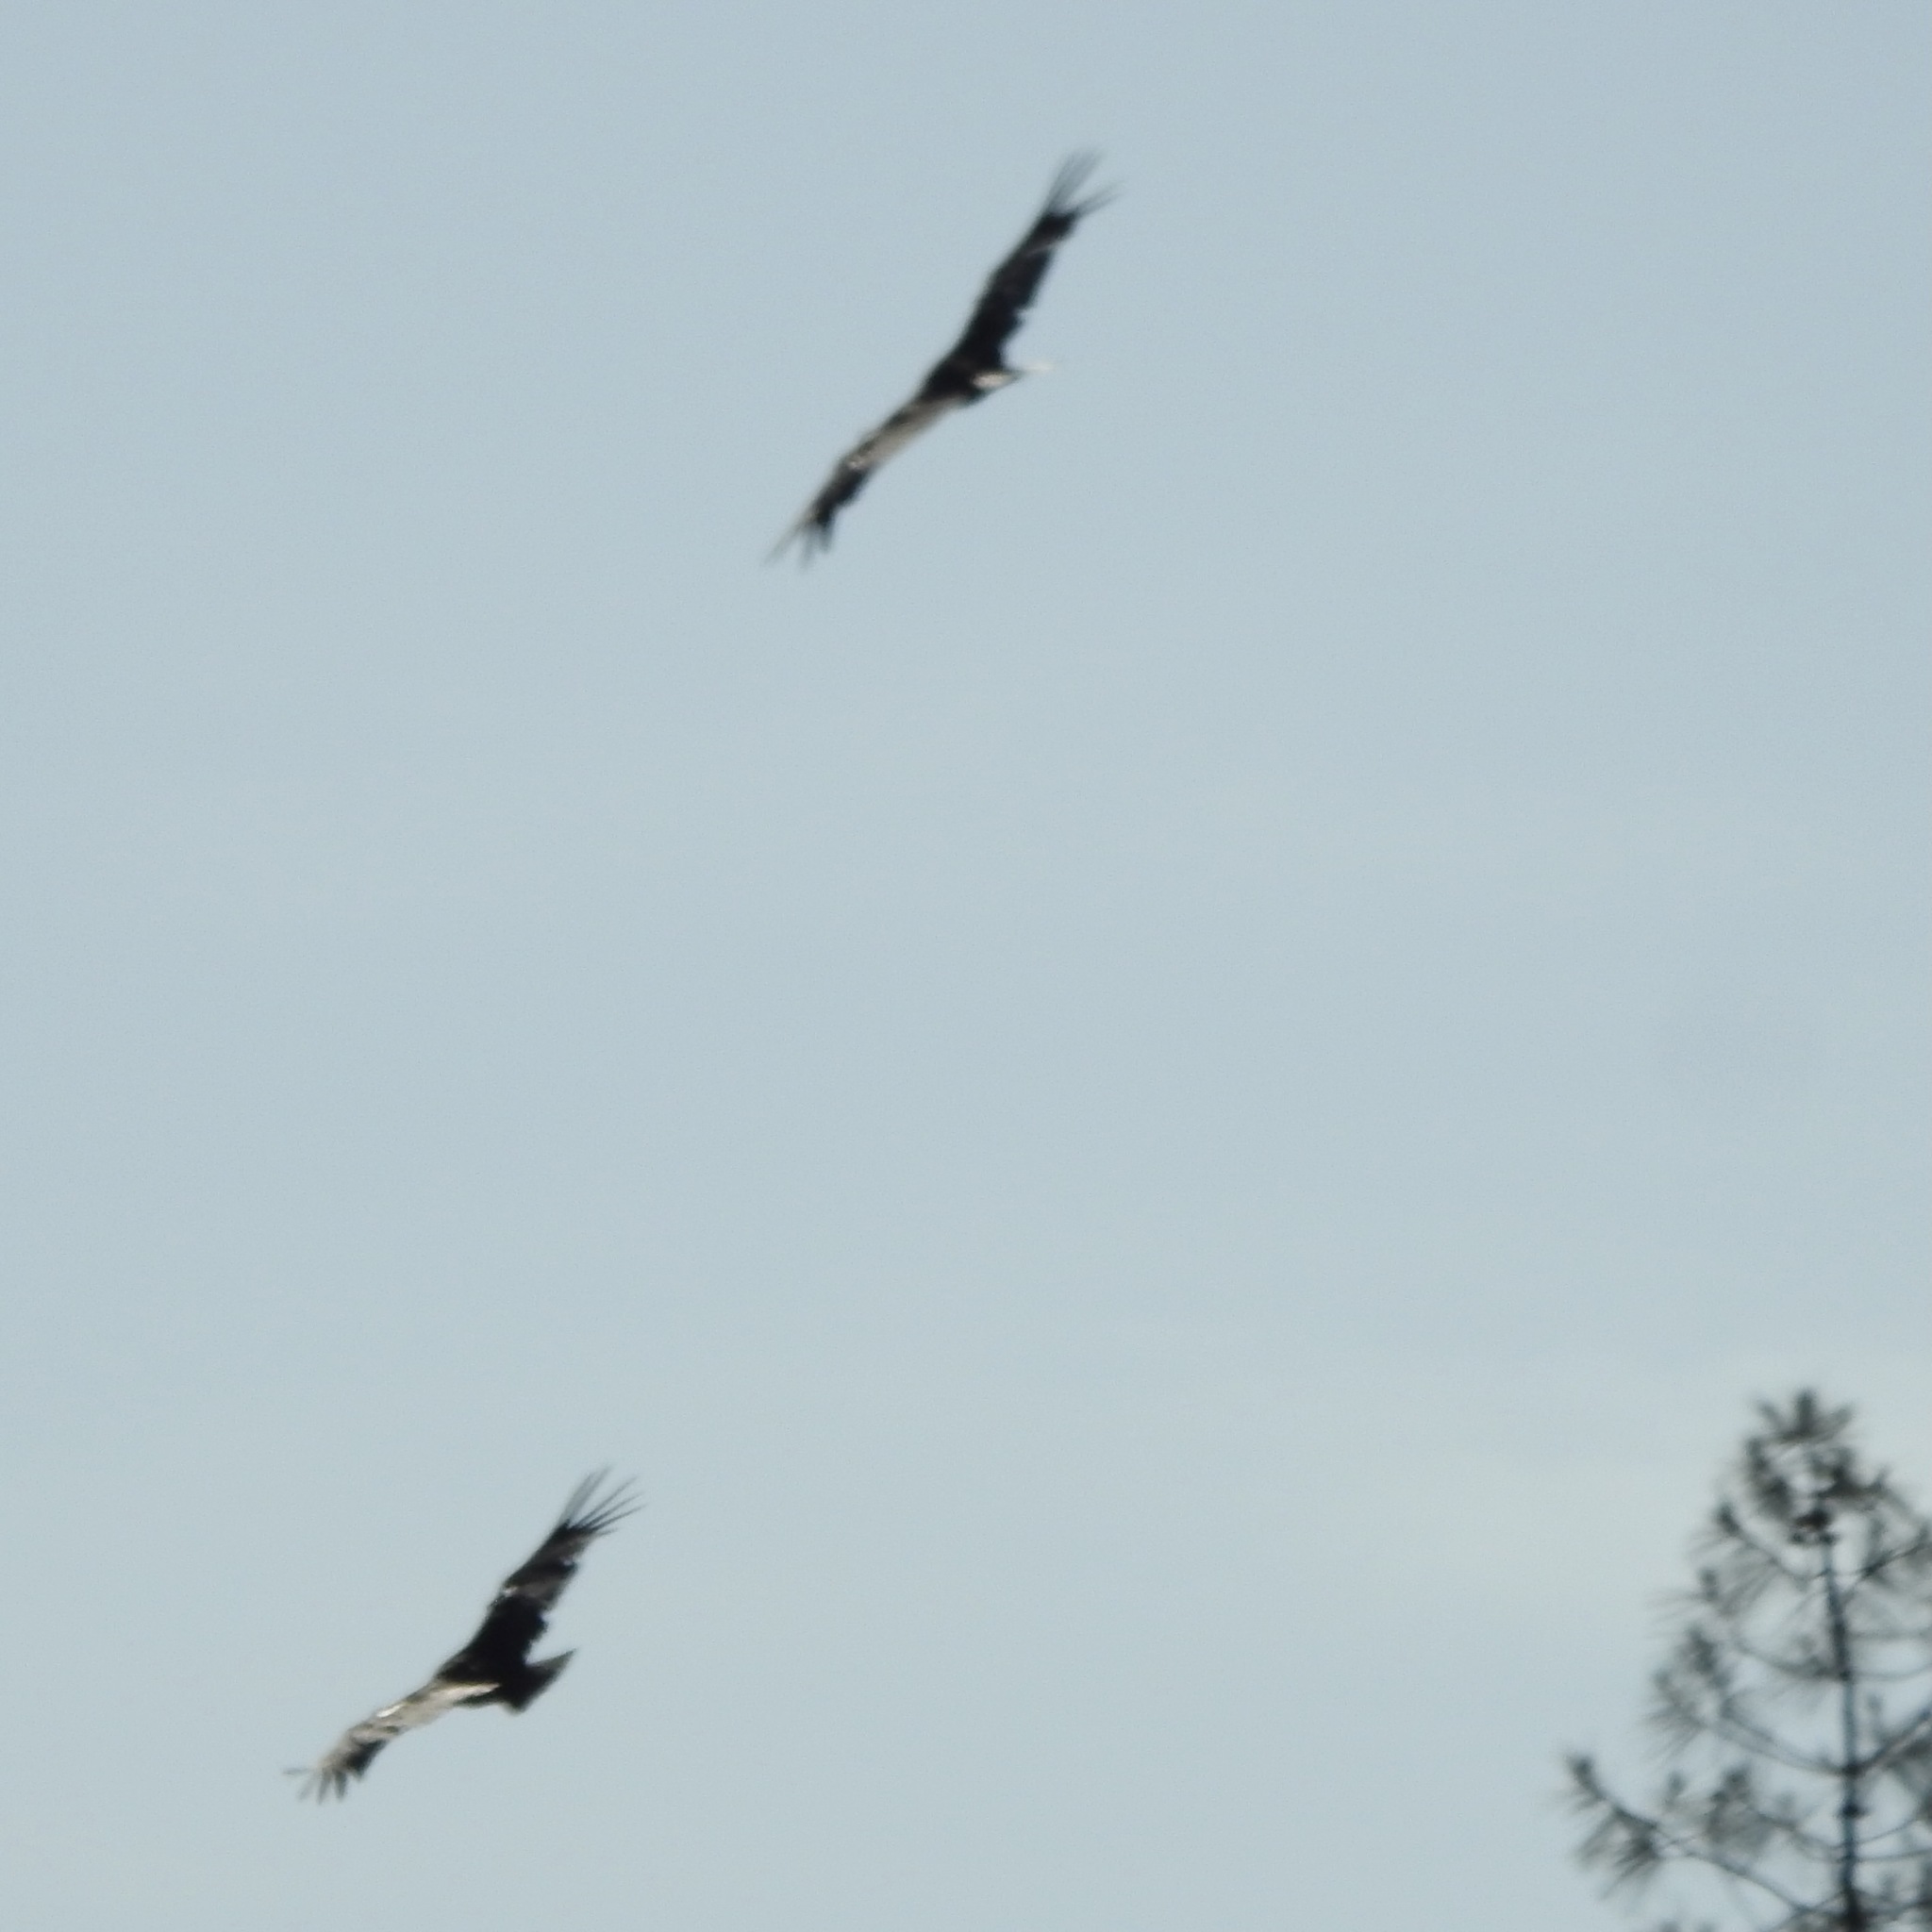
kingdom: Animalia
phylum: Chordata
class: Aves
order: Accipitriformes
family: Cathartidae
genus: Gymnogyps
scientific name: Gymnogyps californianus
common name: California condor
